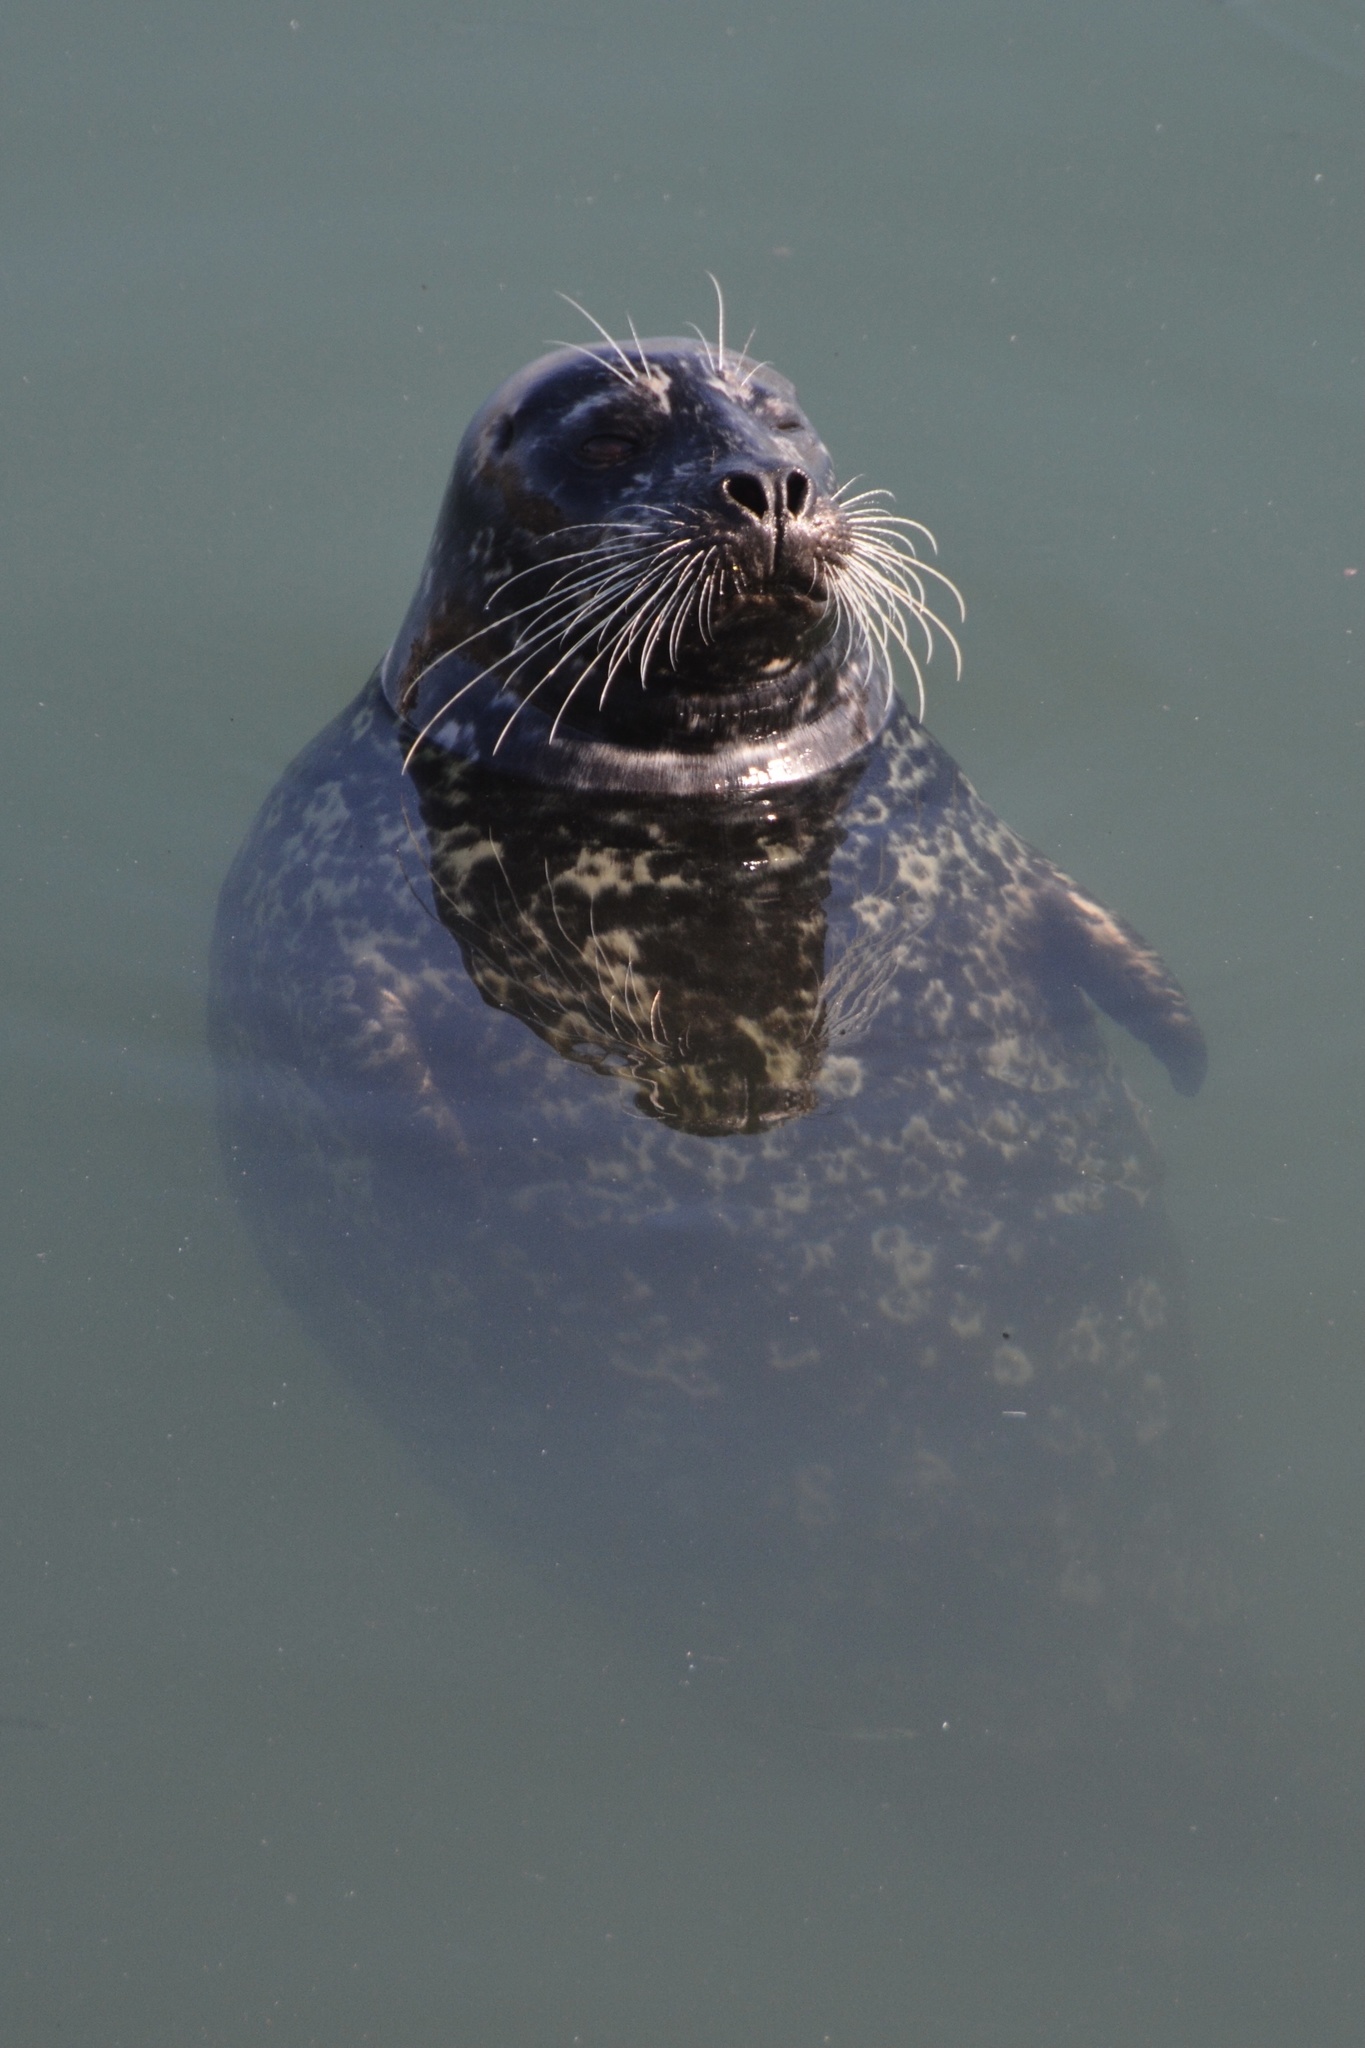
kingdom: Animalia
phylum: Chordata
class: Mammalia
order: Carnivora
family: Phocidae
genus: Phoca
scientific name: Phoca vitulina
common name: Harbor seal
